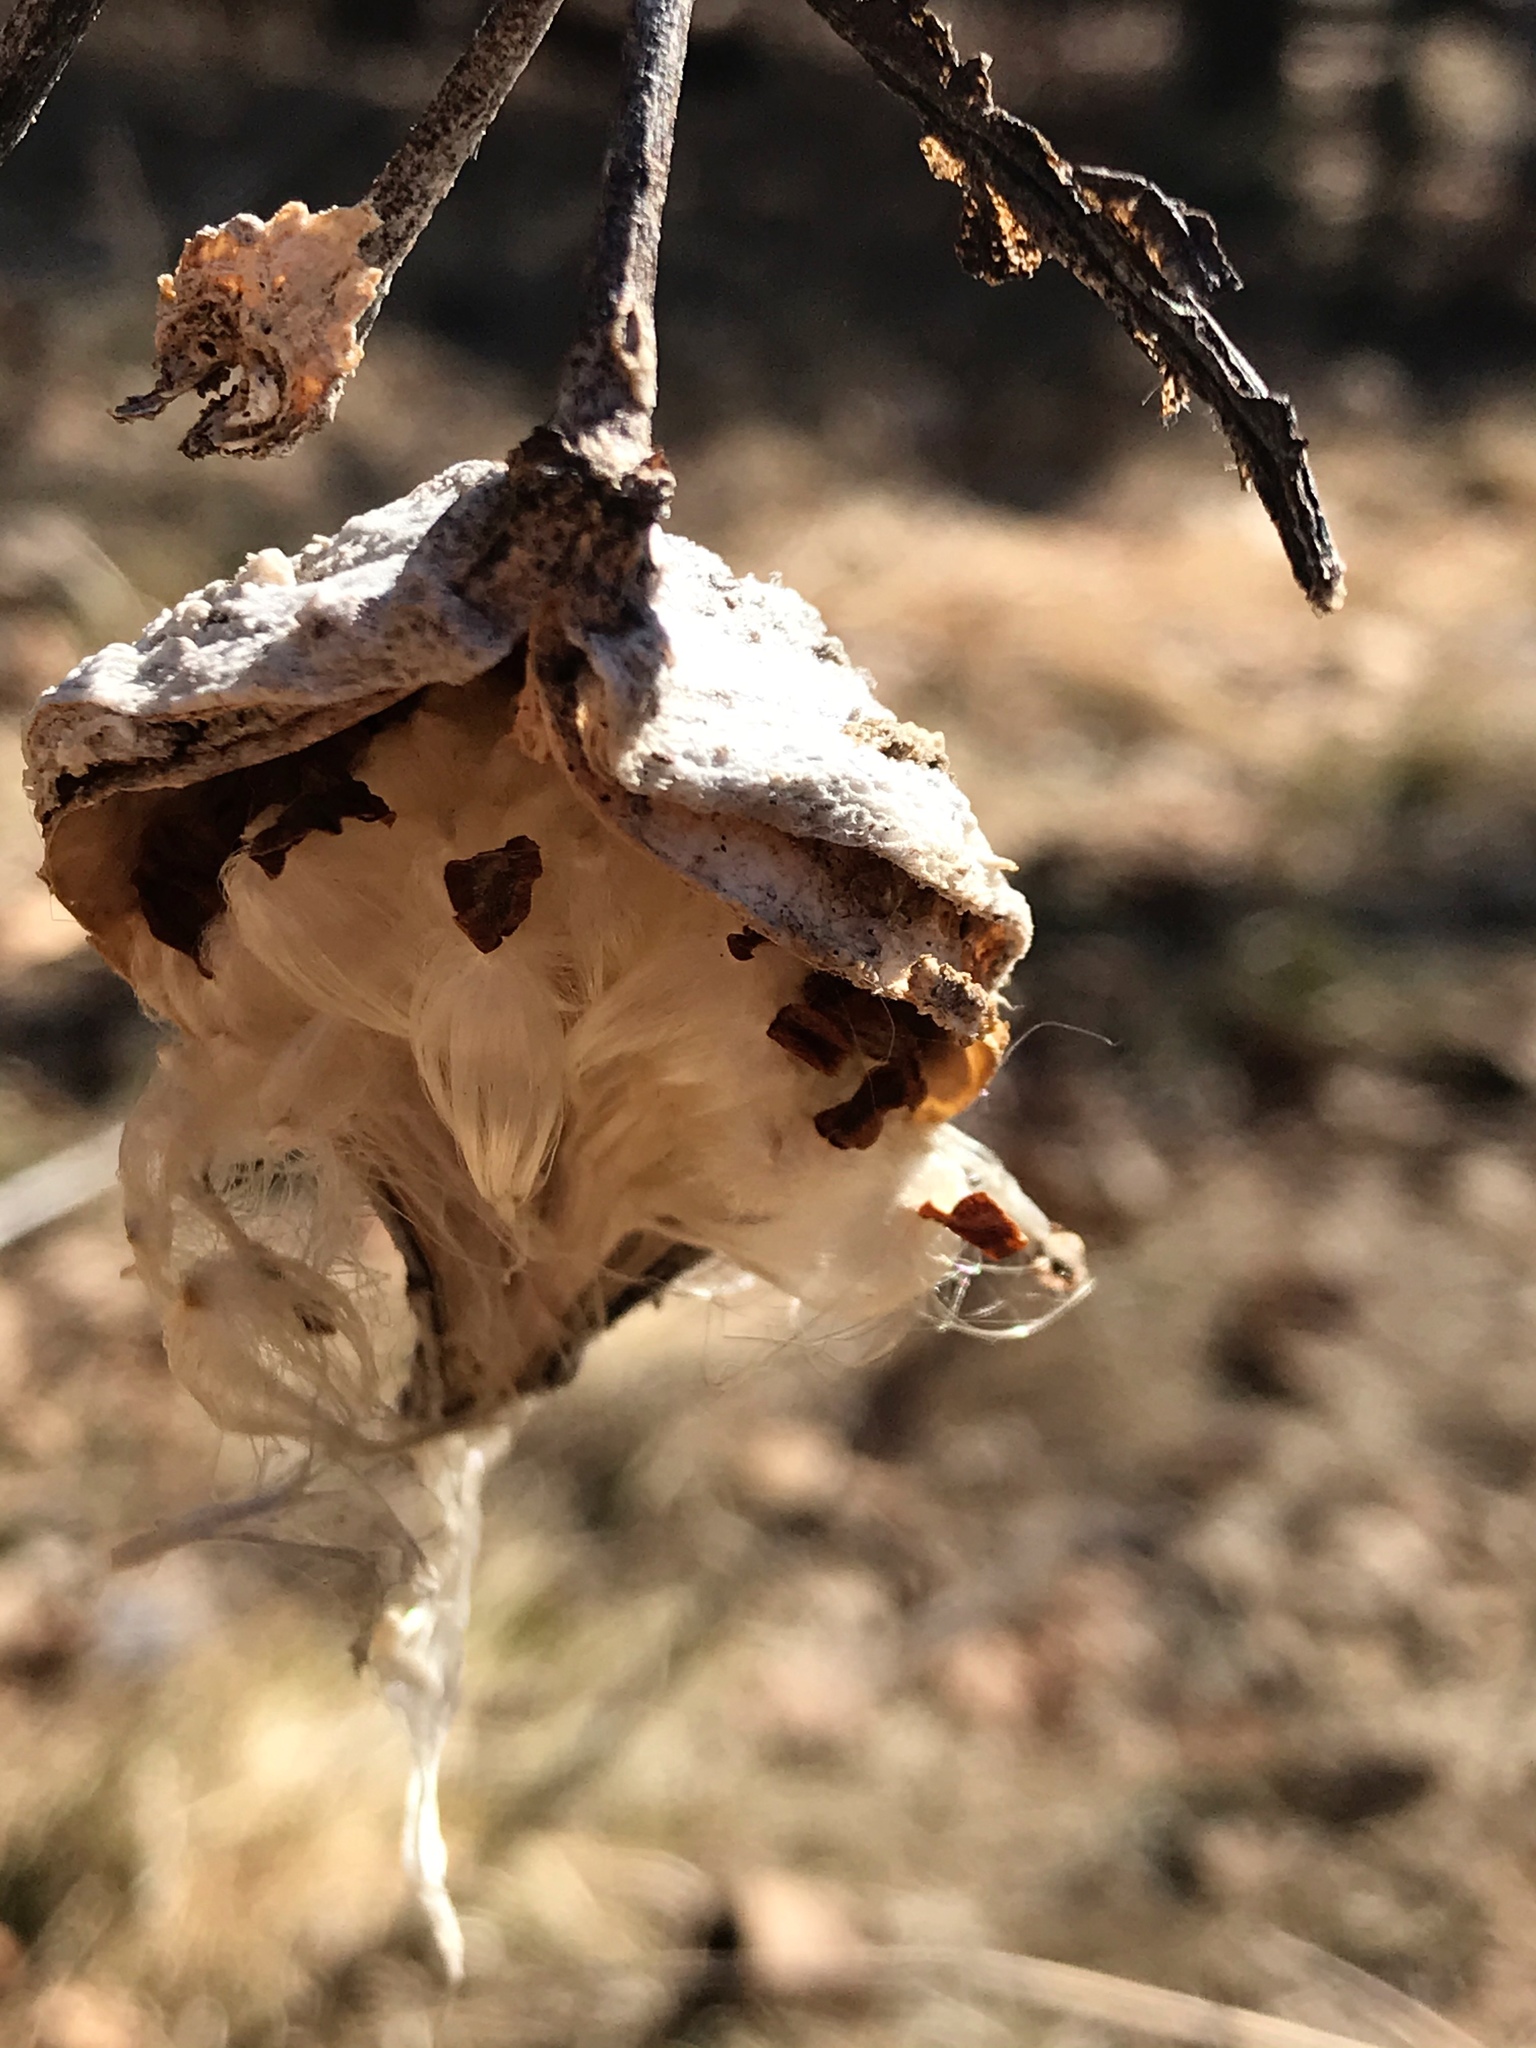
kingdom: Plantae
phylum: Tracheophyta
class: Magnoliopsida
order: Gentianales
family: Apocynaceae
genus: Asclepias
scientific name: Asclepias syriaca
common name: Common milkweed
